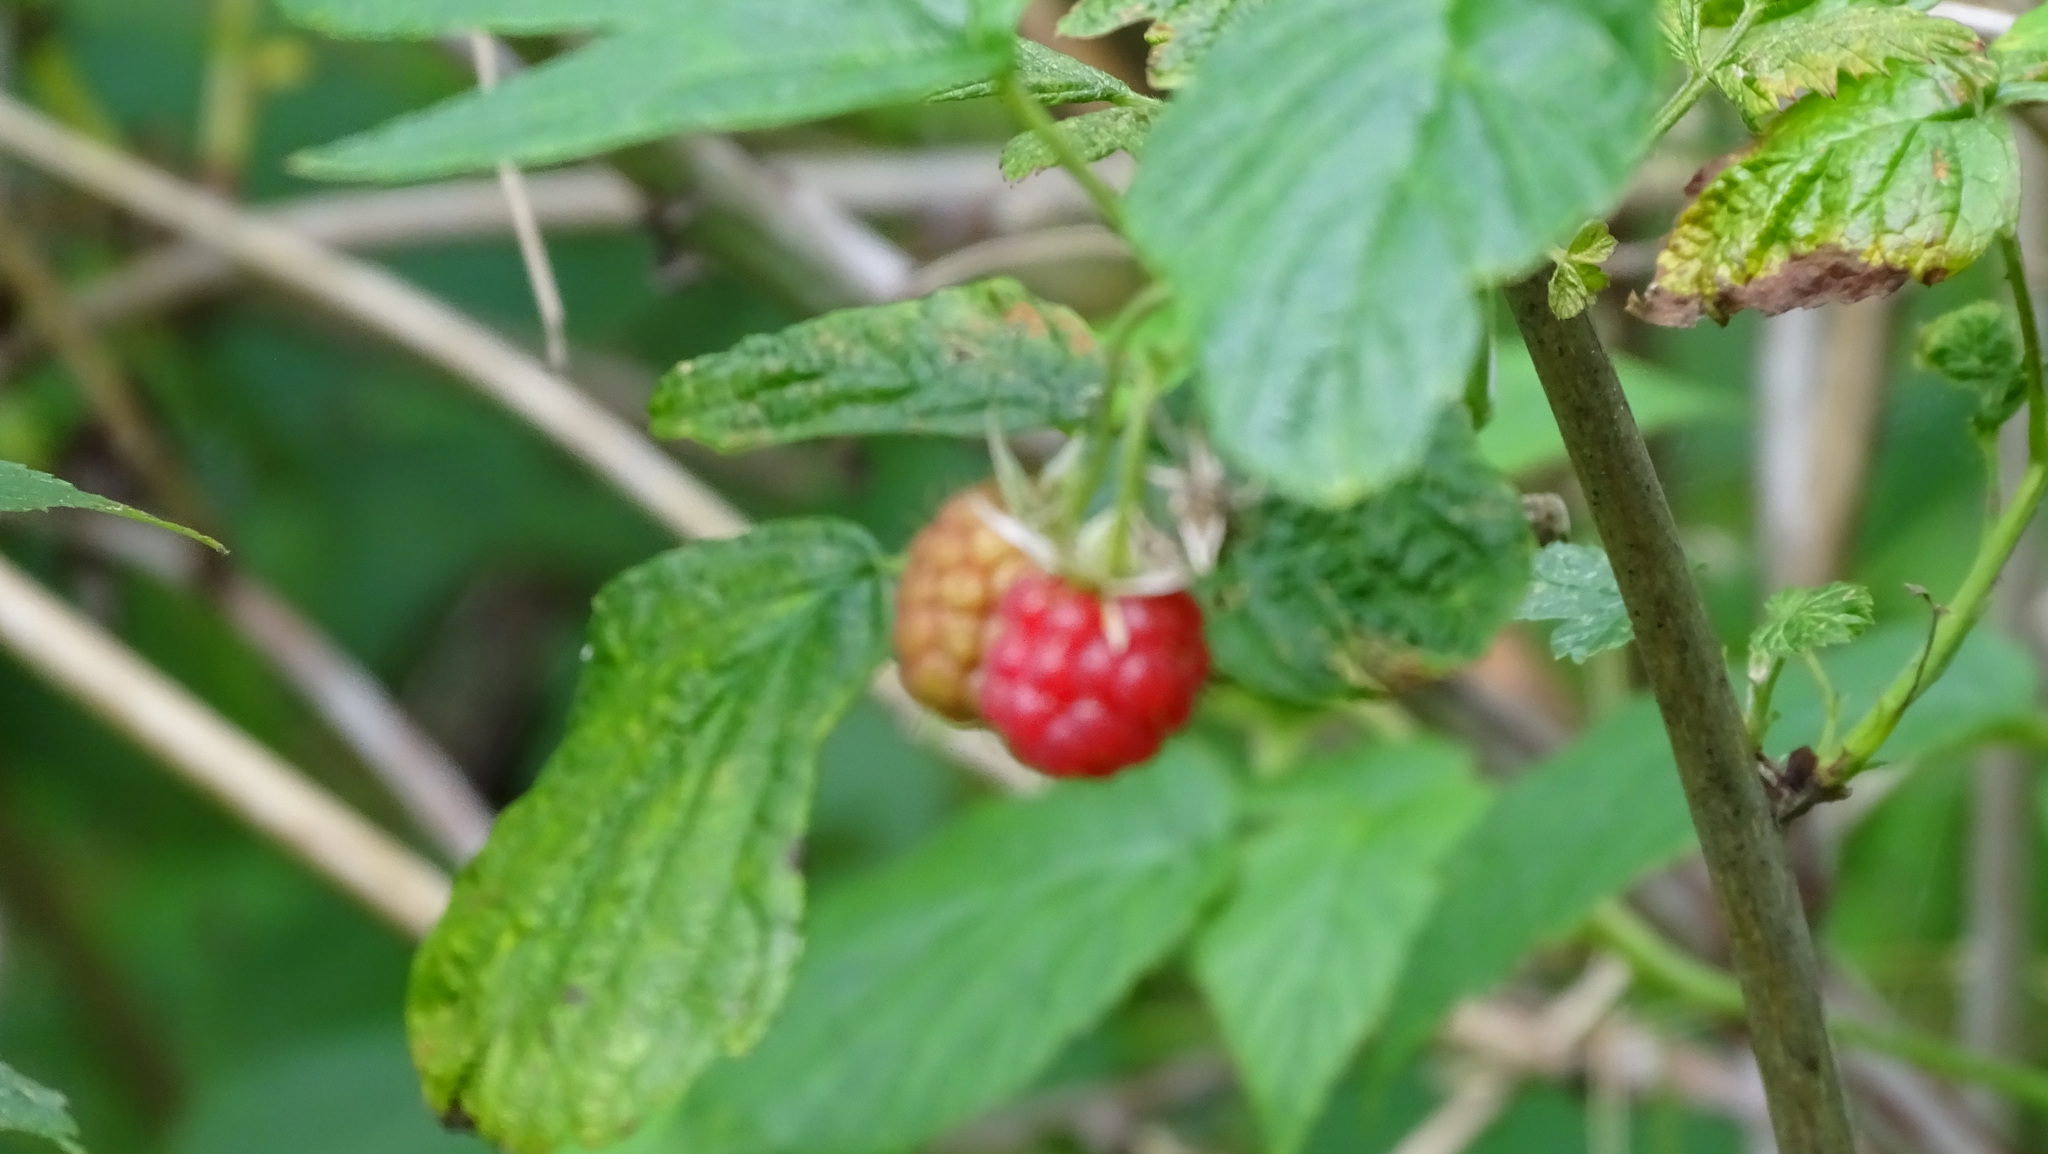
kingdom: Plantae
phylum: Tracheophyta
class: Magnoliopsida
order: Rosales
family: Rosaceae
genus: Rubus
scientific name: Rubus idaeus
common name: Raspberry
